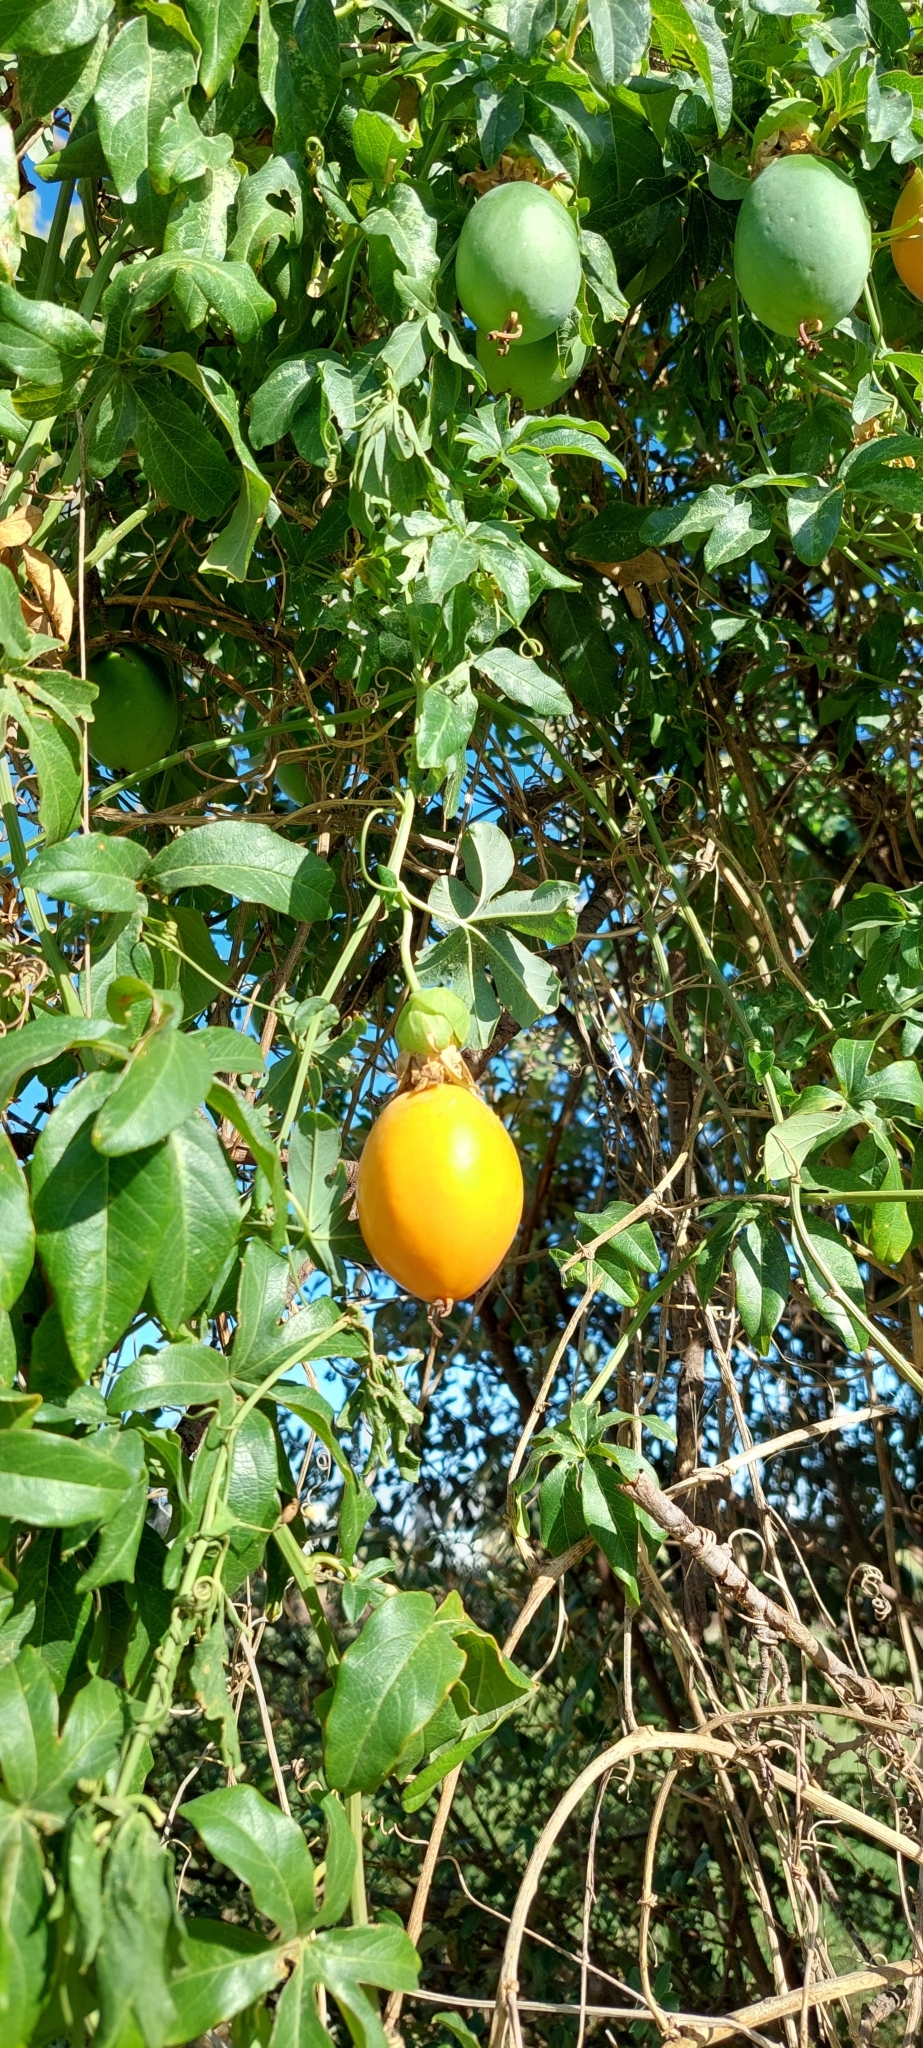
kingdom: Plantae
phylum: Tracheophyta
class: Magnoliopsida
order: Malpighiales
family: Passifloraceae
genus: Passiflora
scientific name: Passiflora caerulea
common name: Blue passionflower
